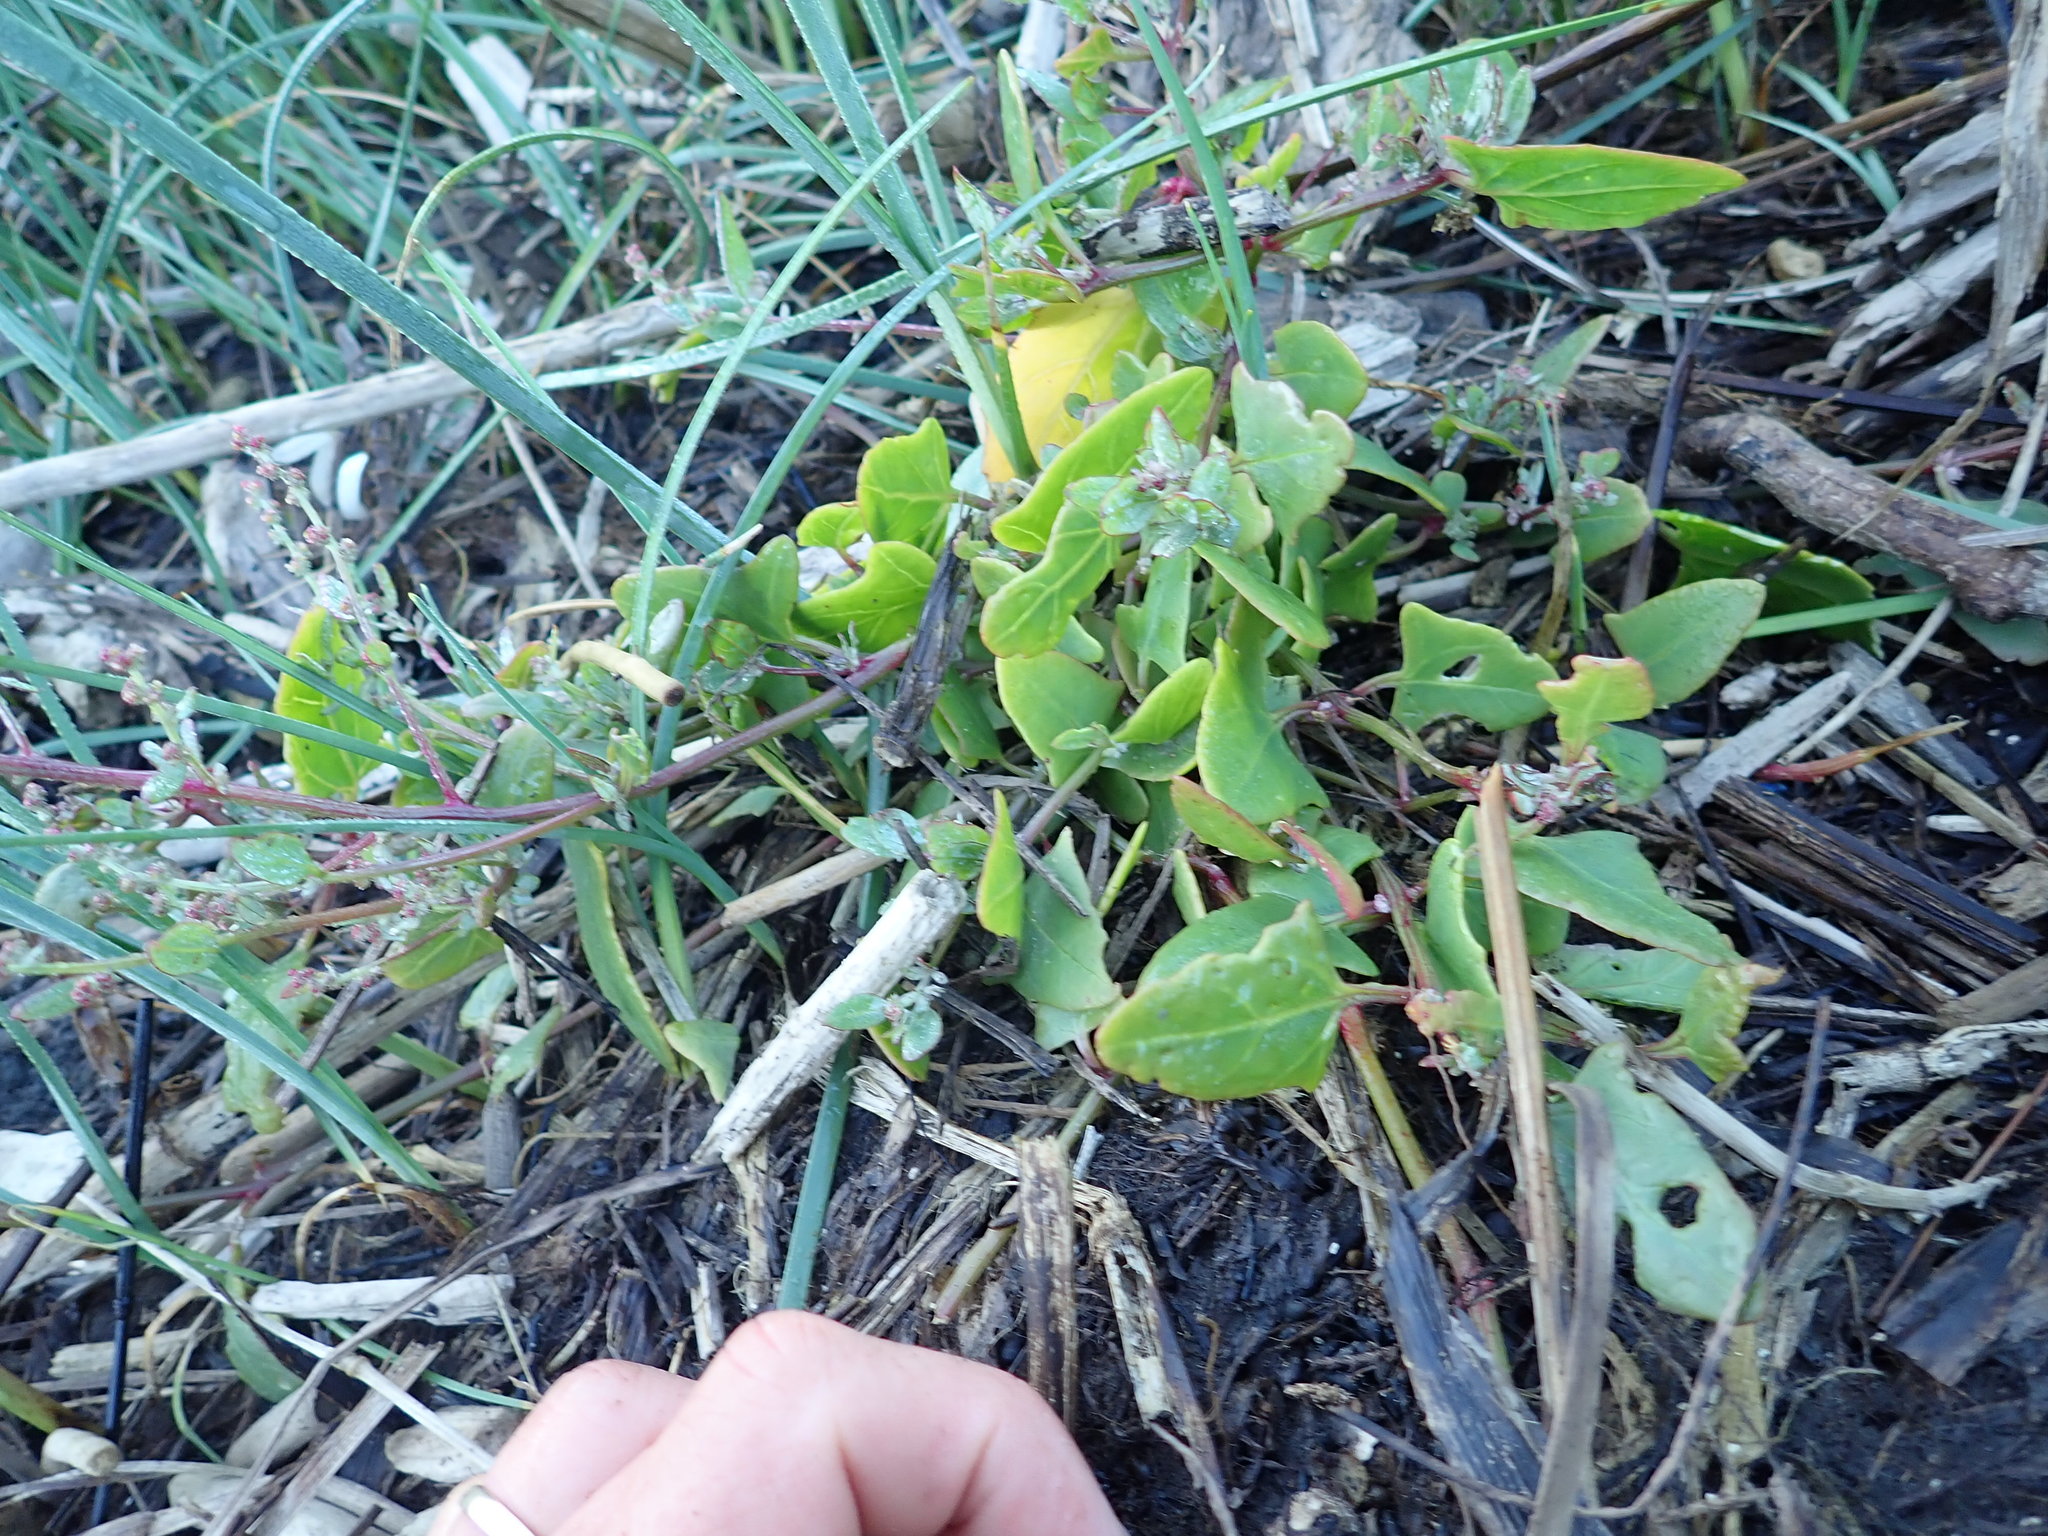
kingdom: Plantae
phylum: Tracheophyta
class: Magnoliopsida
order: Caryophyllales
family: Amaranthaceae
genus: Atriplex
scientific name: Atriplex prostrata
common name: Spear-leaved orache
